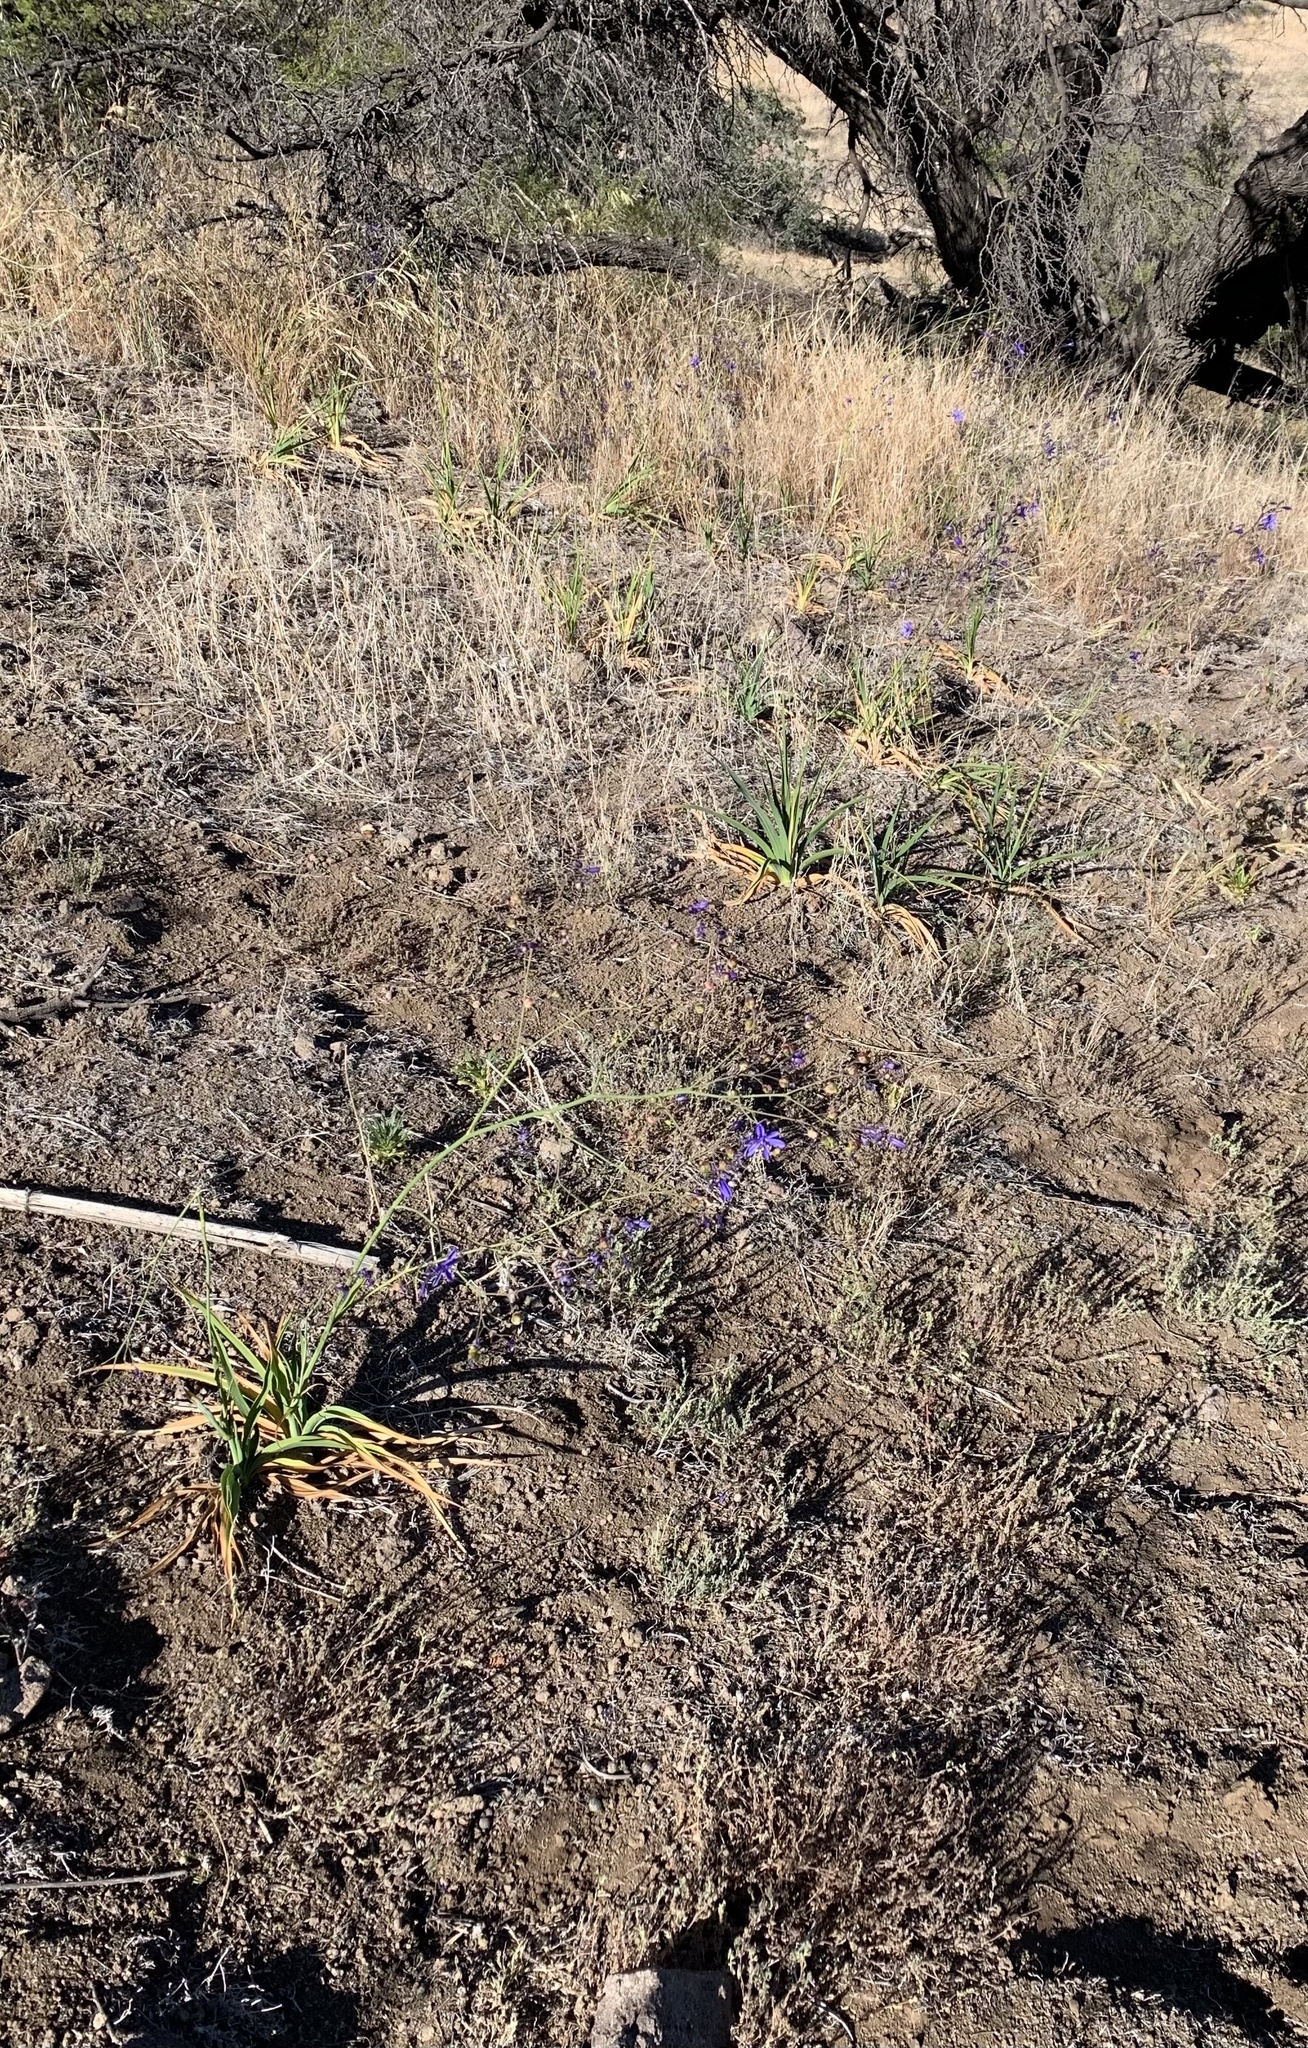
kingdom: Plantae
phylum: Tracheophyta
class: Liliopsida
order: Asparagales
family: Asphodelaceae
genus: Pasithea
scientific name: Pasithea caerulea
